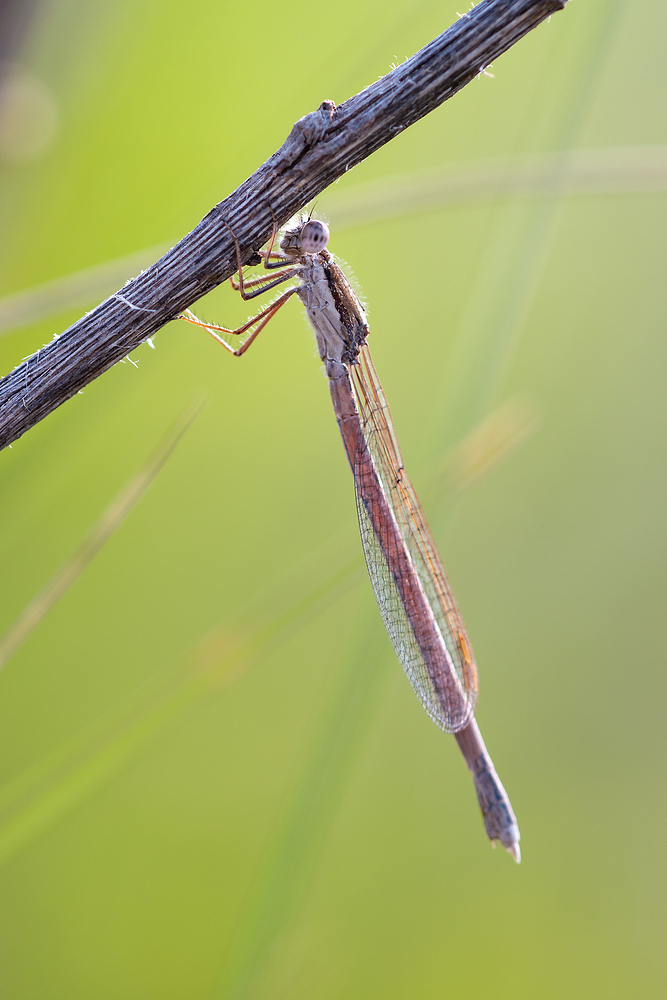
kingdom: Animalia
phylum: Arthropoda
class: Insecta
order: Odonata
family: Lestidae
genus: Sympecma
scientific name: Sympecma fusca
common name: Common winter damsel
